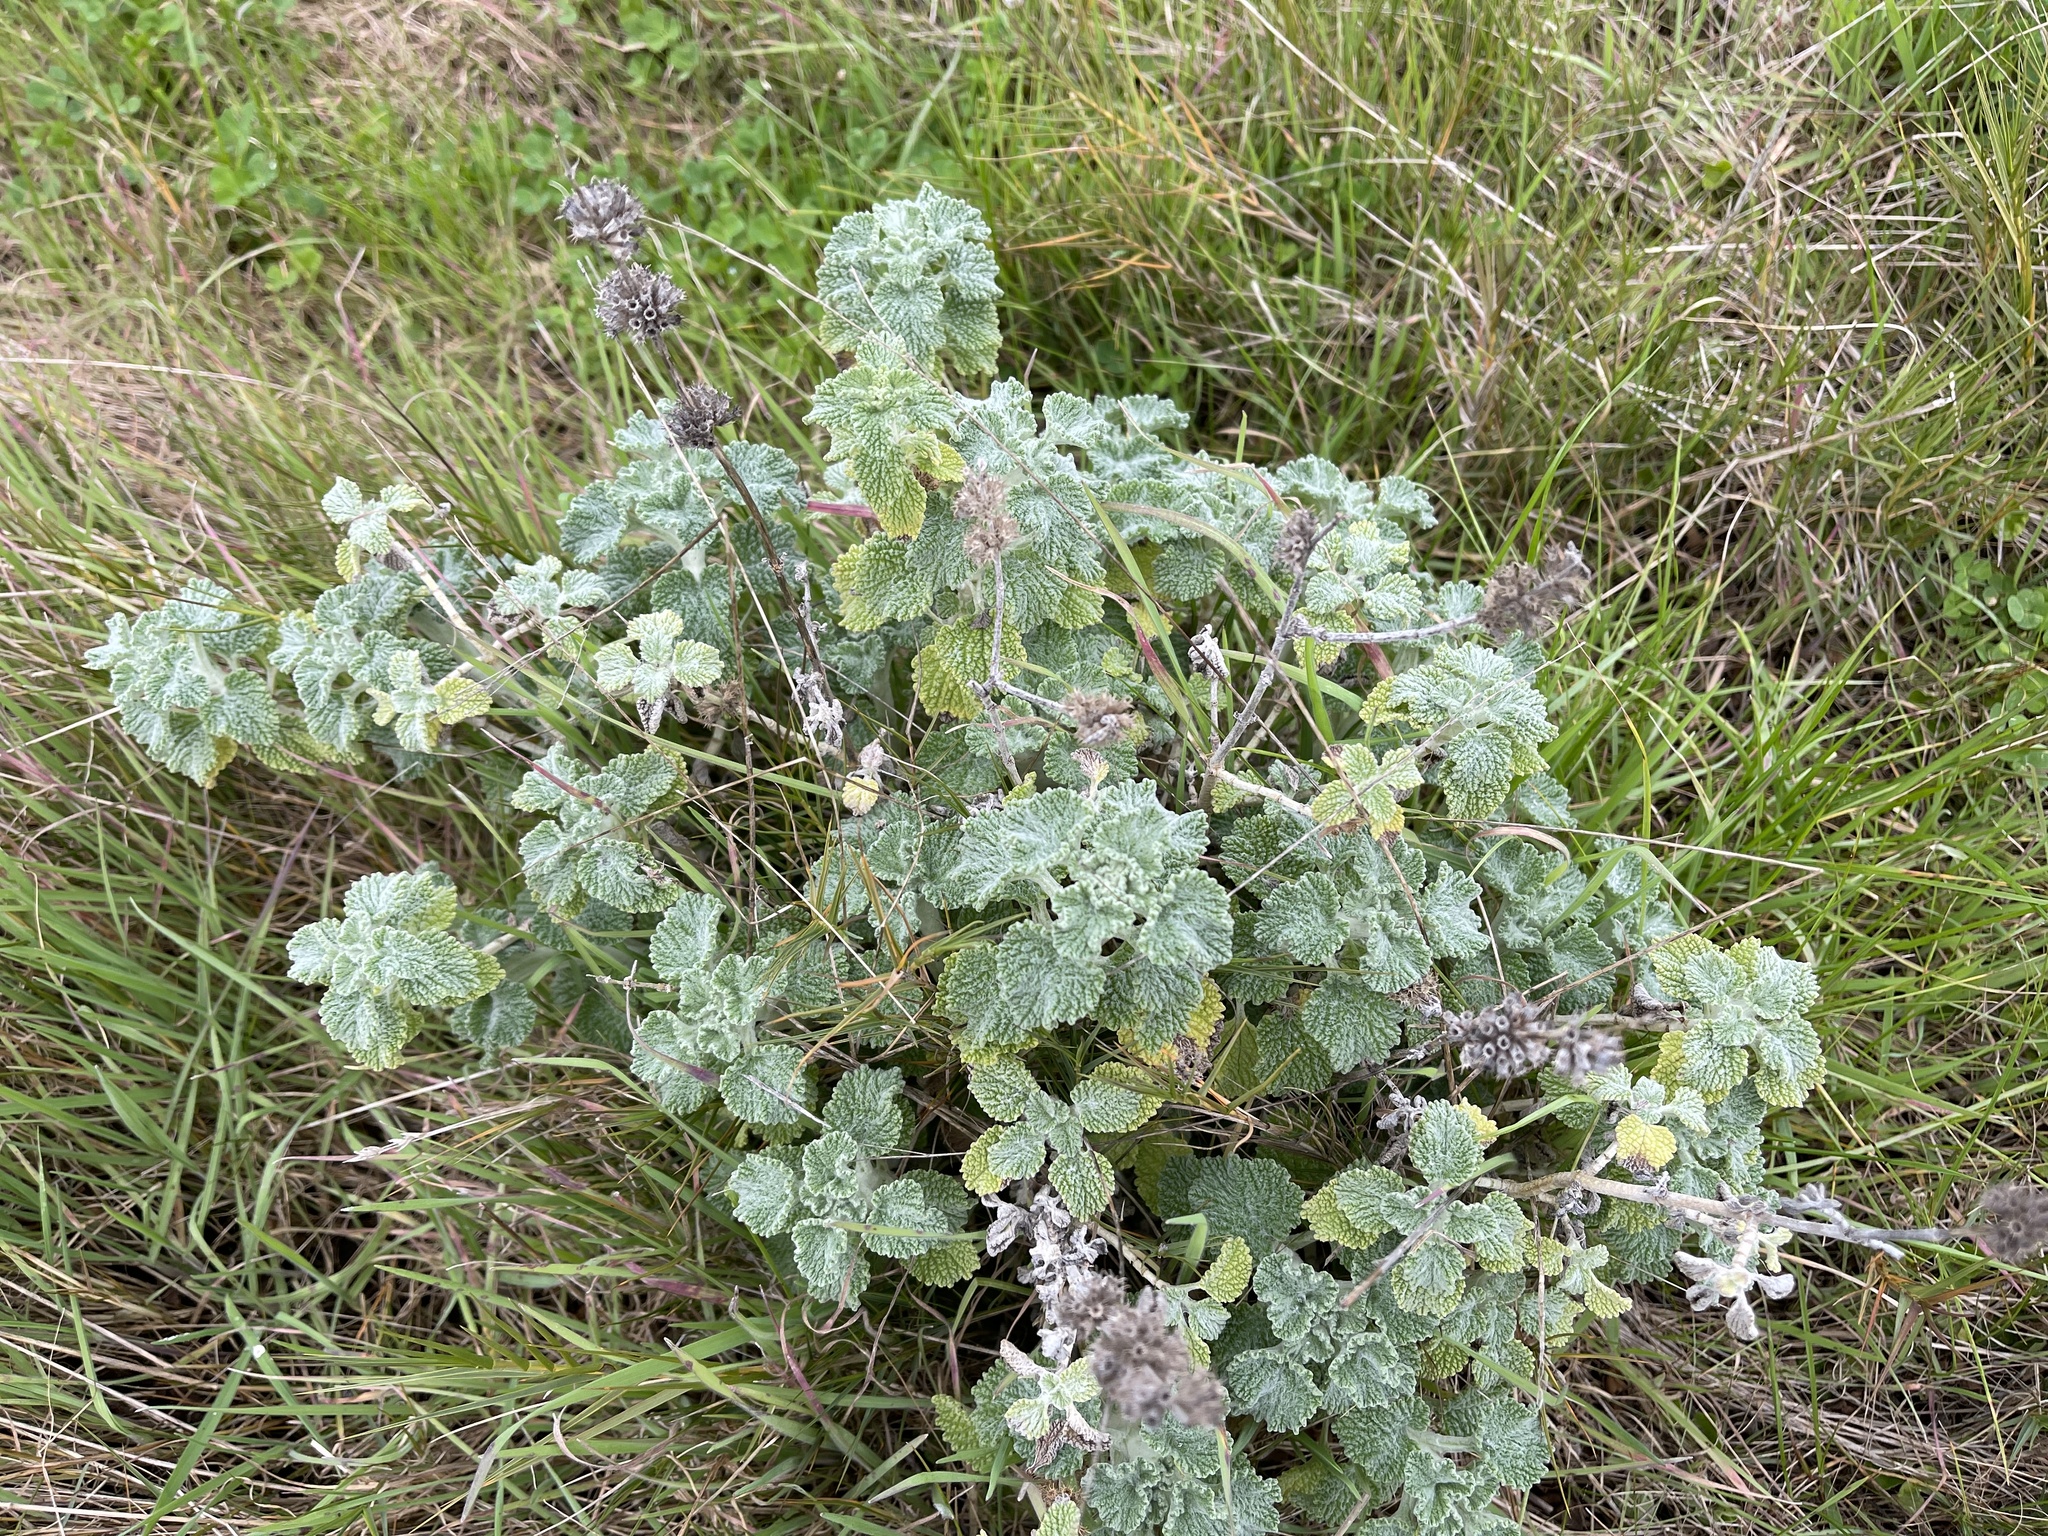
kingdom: Plantae
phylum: Tracheophyta
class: Magnoliopsida
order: Lamiales
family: Lamiaceae
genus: Marrubium
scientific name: Marrubium vulgare
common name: Horehound
